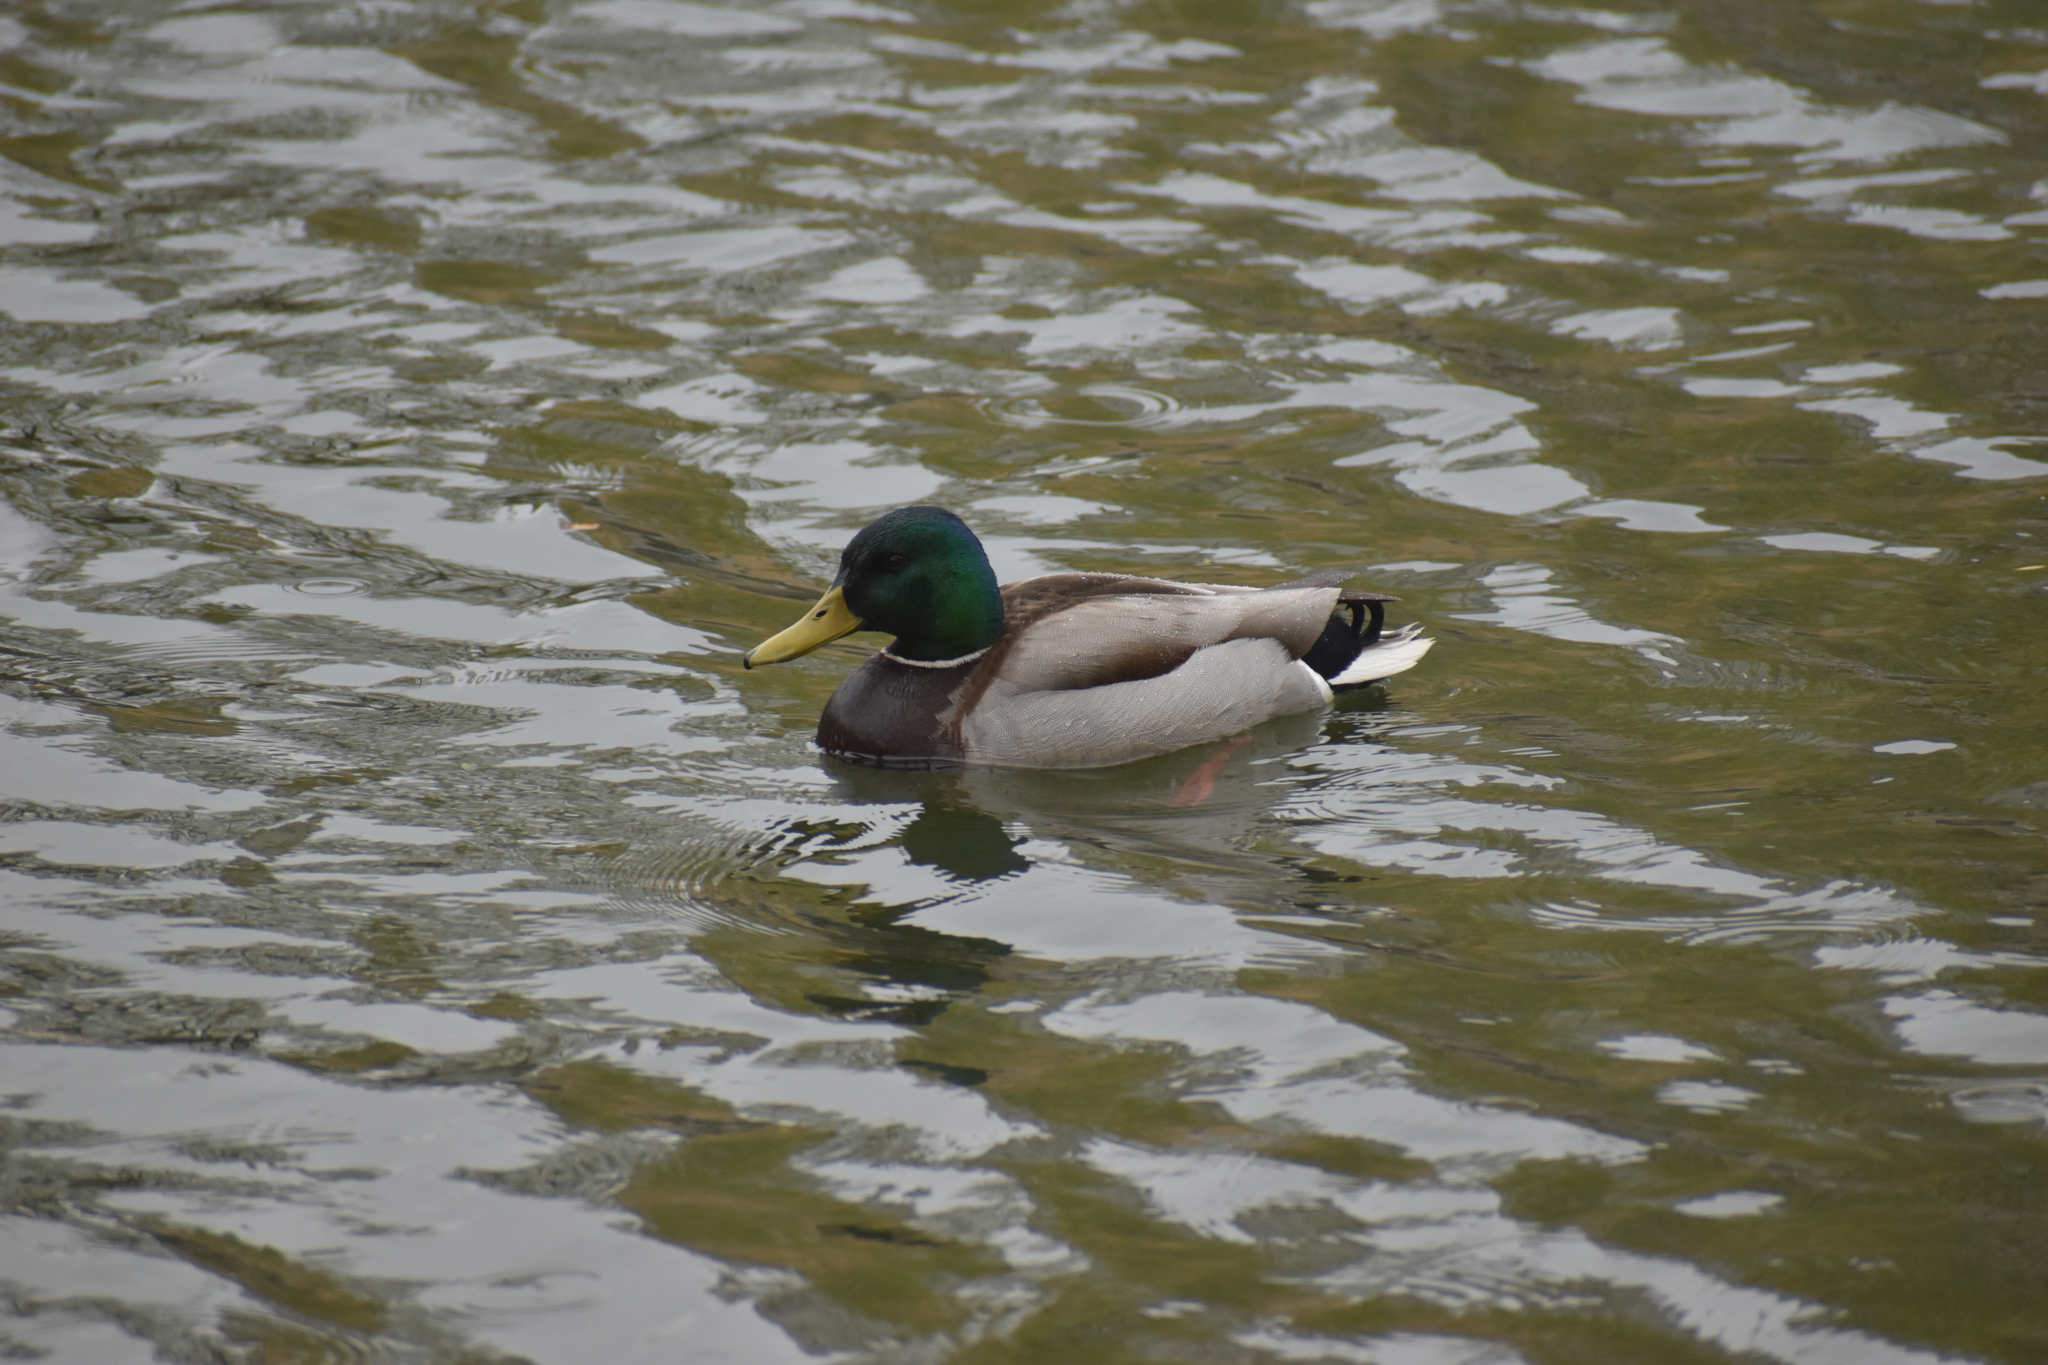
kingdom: Animalia
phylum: Chordata
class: Aves
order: Anseriformes
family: Anatidae
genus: Anas
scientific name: Anas platyrhynchos
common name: Mallard
